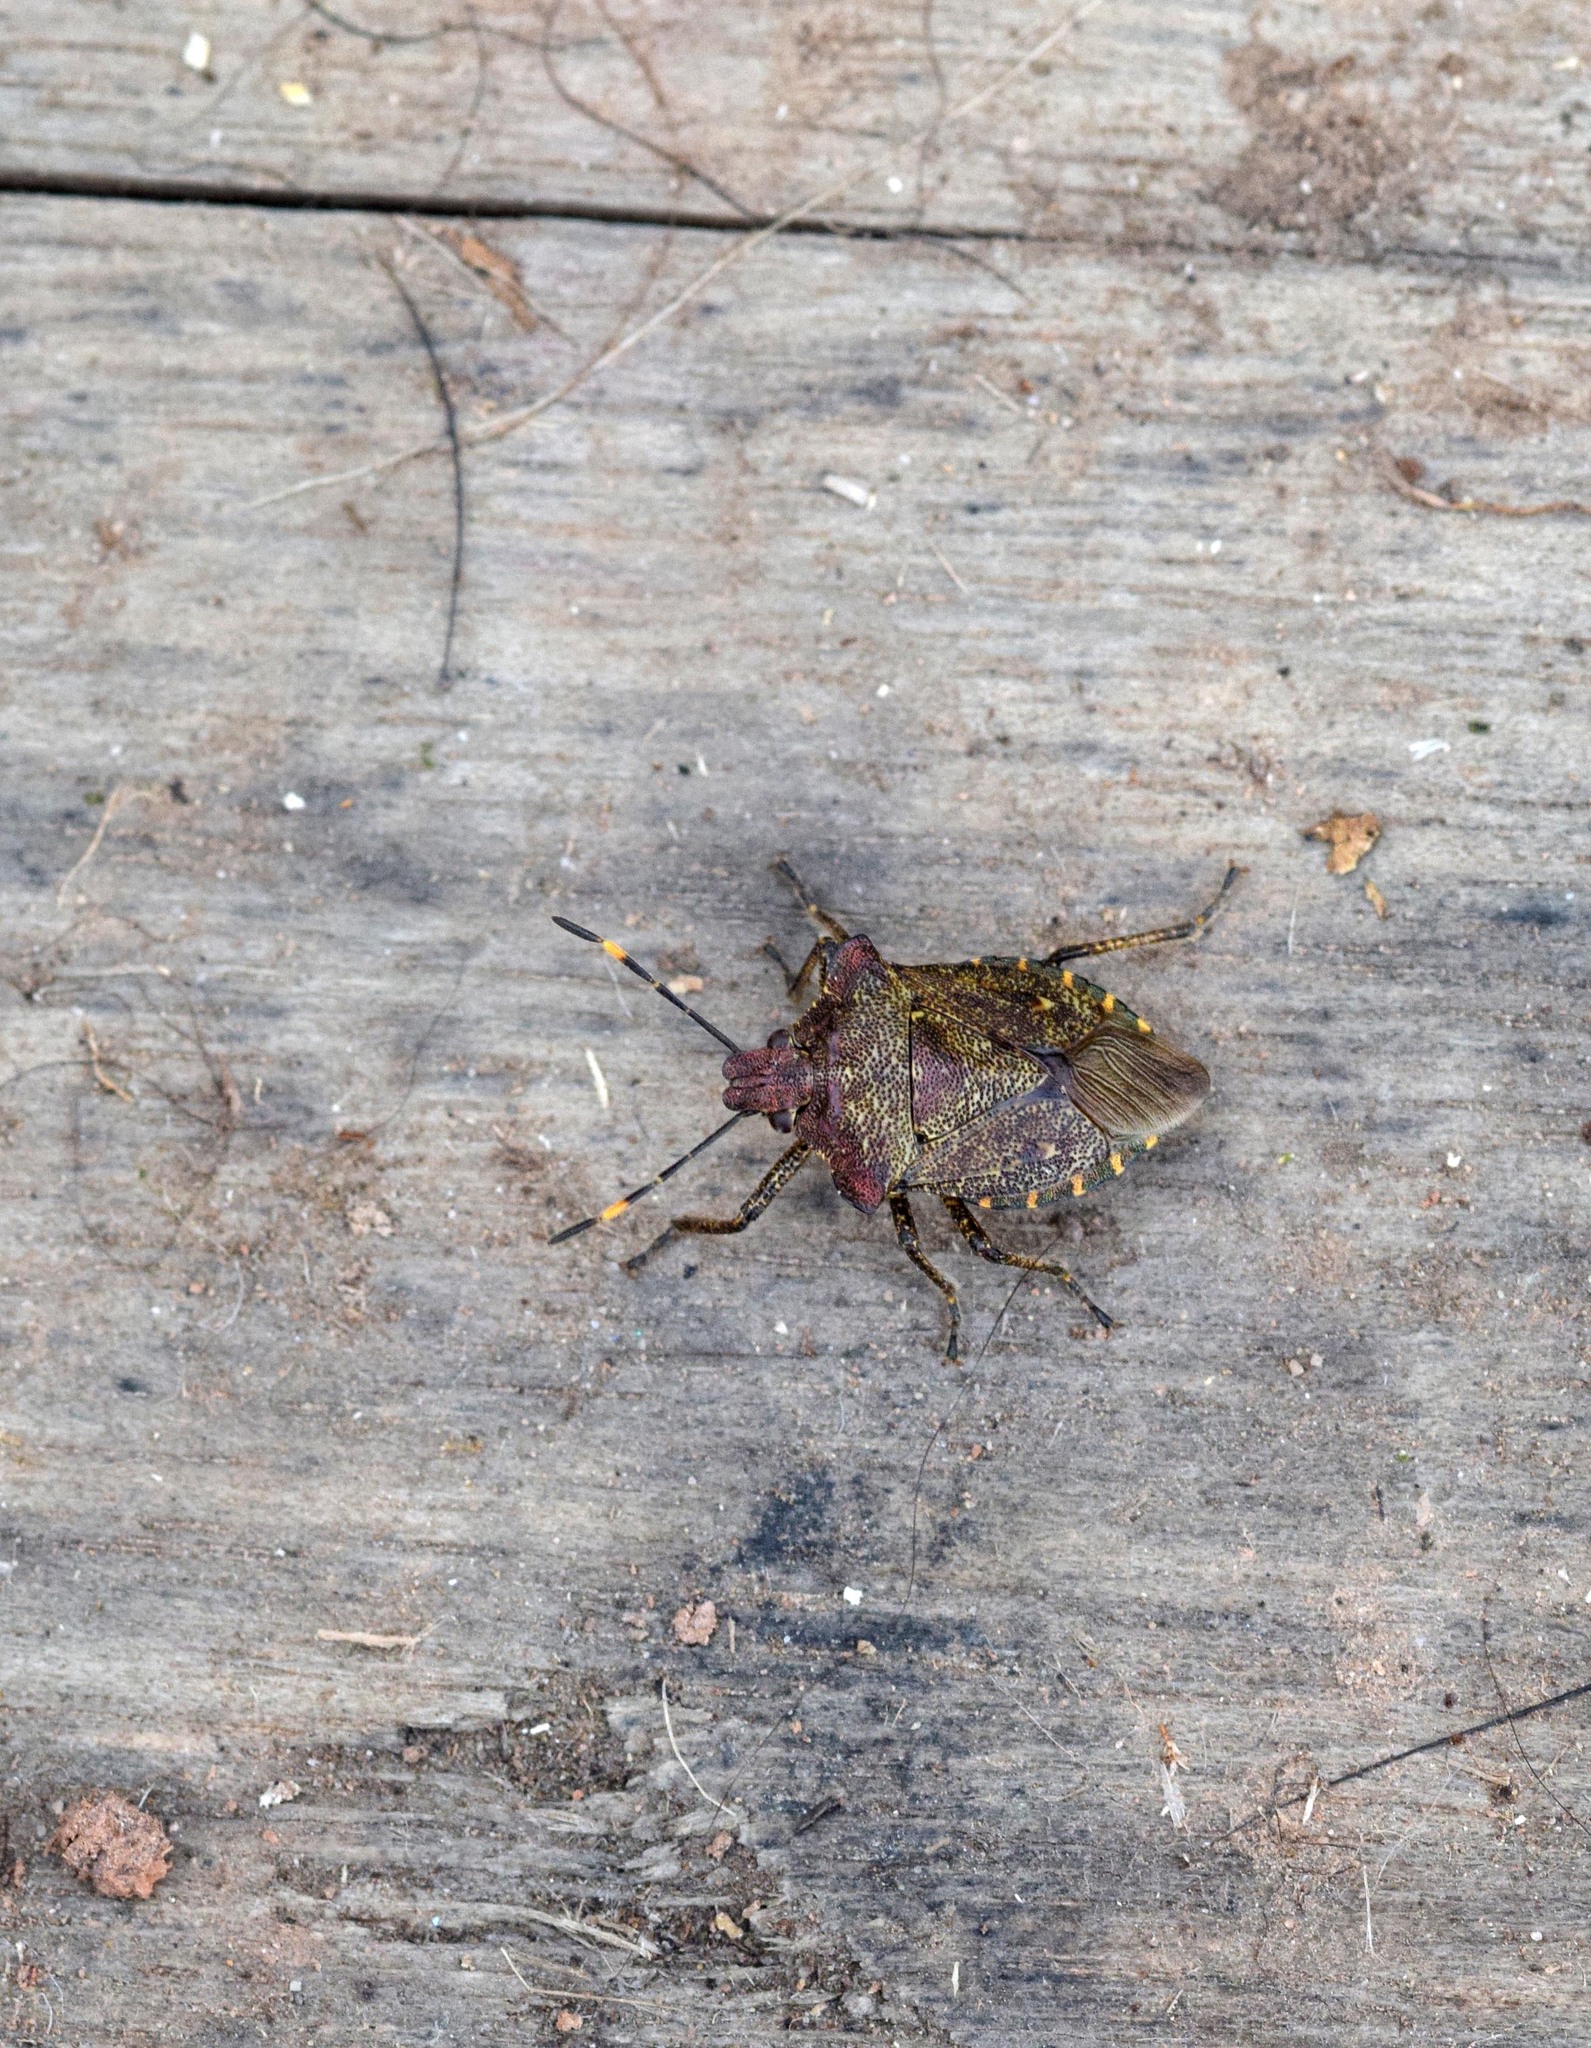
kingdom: Animalia
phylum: Arthropoda
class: Insecta
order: Hemiptera
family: Pentatomidae
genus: Troilus
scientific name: Troilus luridus
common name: Bronze shieldbug
